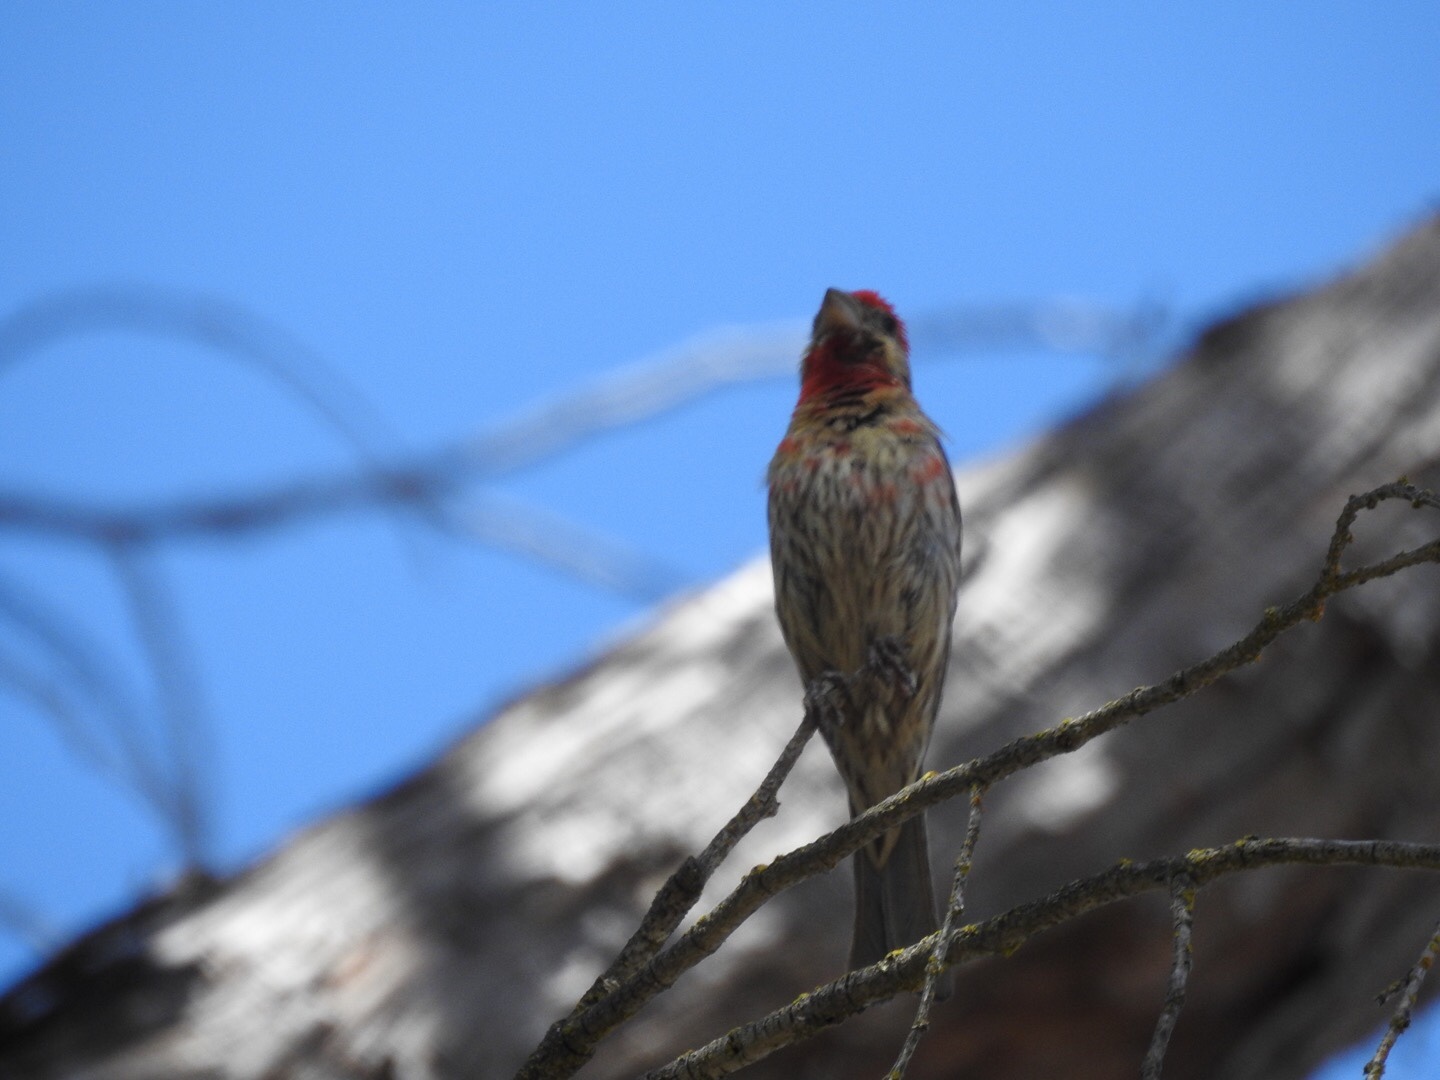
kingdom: Animalia
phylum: Chordata
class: Aves
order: Passeriformes
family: Fringillidae
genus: Haemorhous
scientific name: Haemorhous mexicanus
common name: House finch
